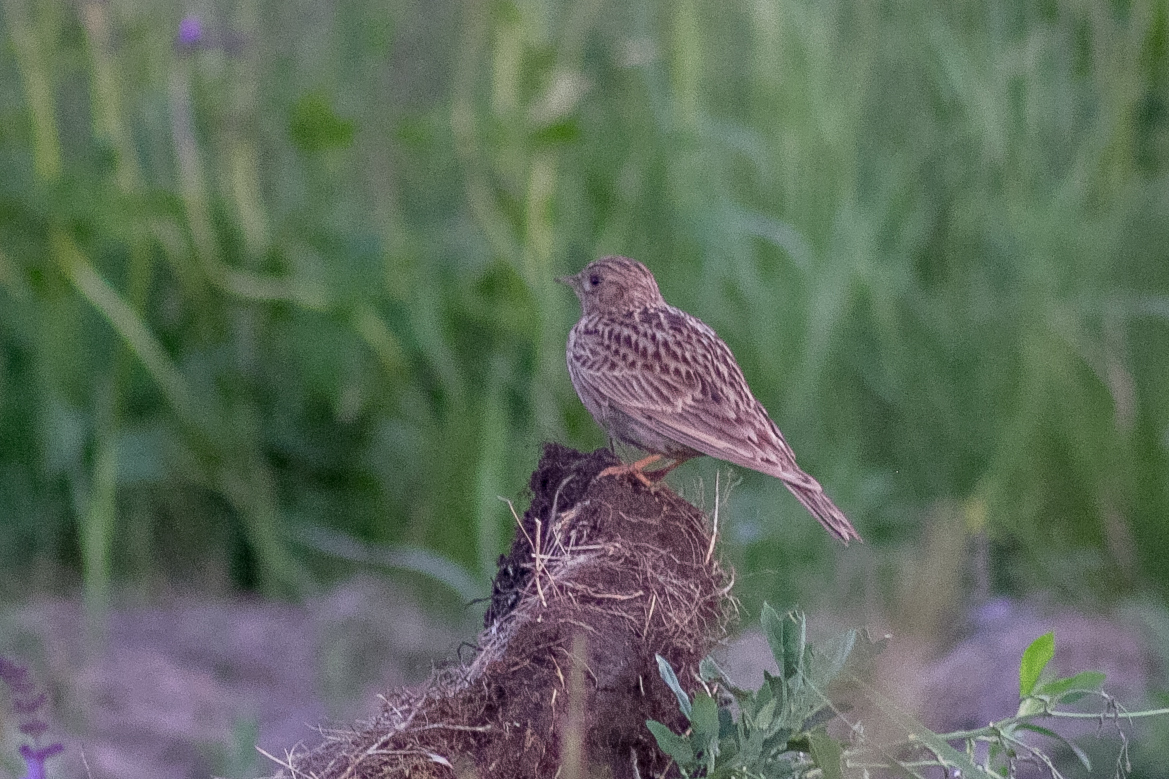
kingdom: Animalia
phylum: Chordata
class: Aves
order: Passeriformes
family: Alaudidae
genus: Alauda
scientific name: Alauda arvensis
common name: Eurasian skylark
